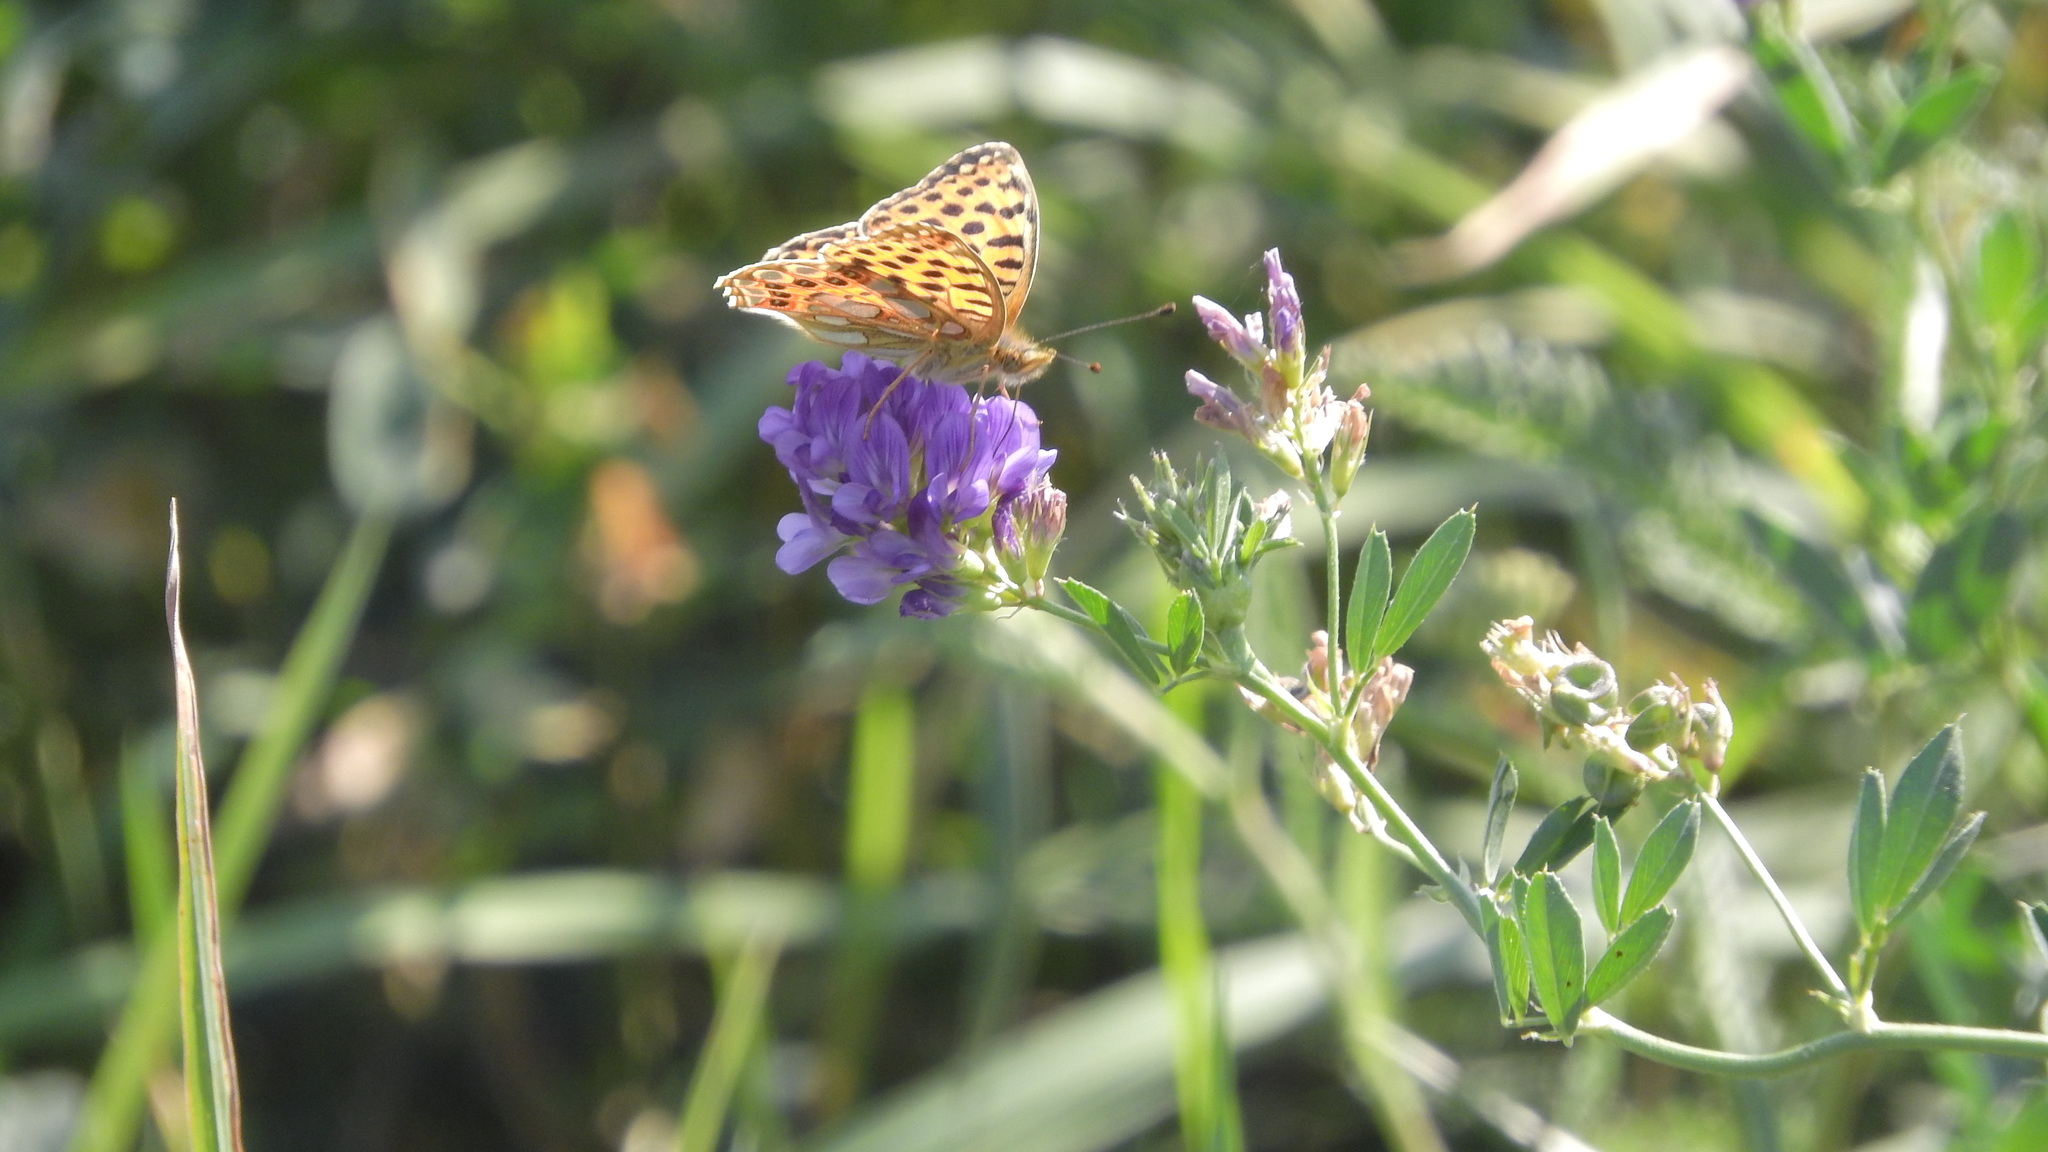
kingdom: Animalia
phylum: Arthropoda
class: Insecta
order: Lepidoptera
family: Nymphalidae
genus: Issoria
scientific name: Issoria lathonia
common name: Queen of spain fritillary
